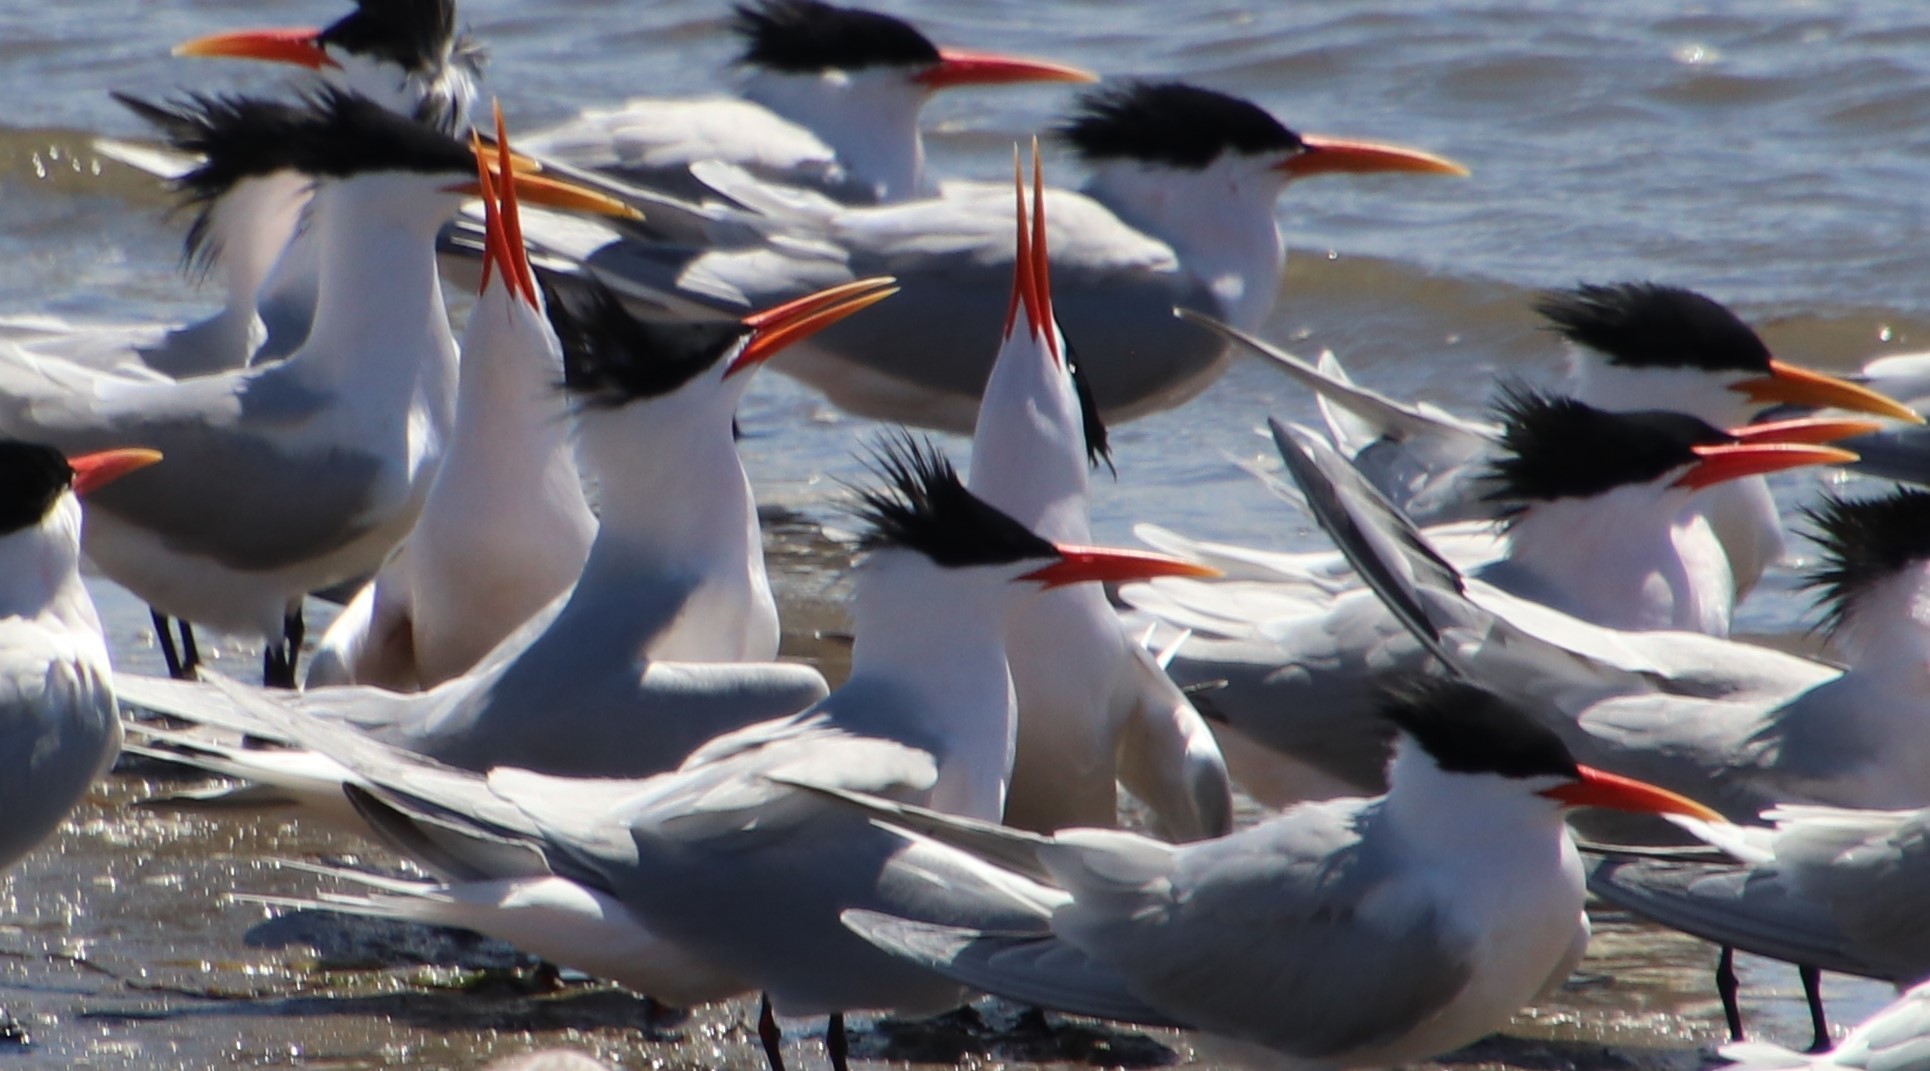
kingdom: Animalia
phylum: Chordata
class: Aves
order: Charadriiformes
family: Laridae
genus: Thalasseus
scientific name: Thalasseus elegans
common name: Elegant tern
